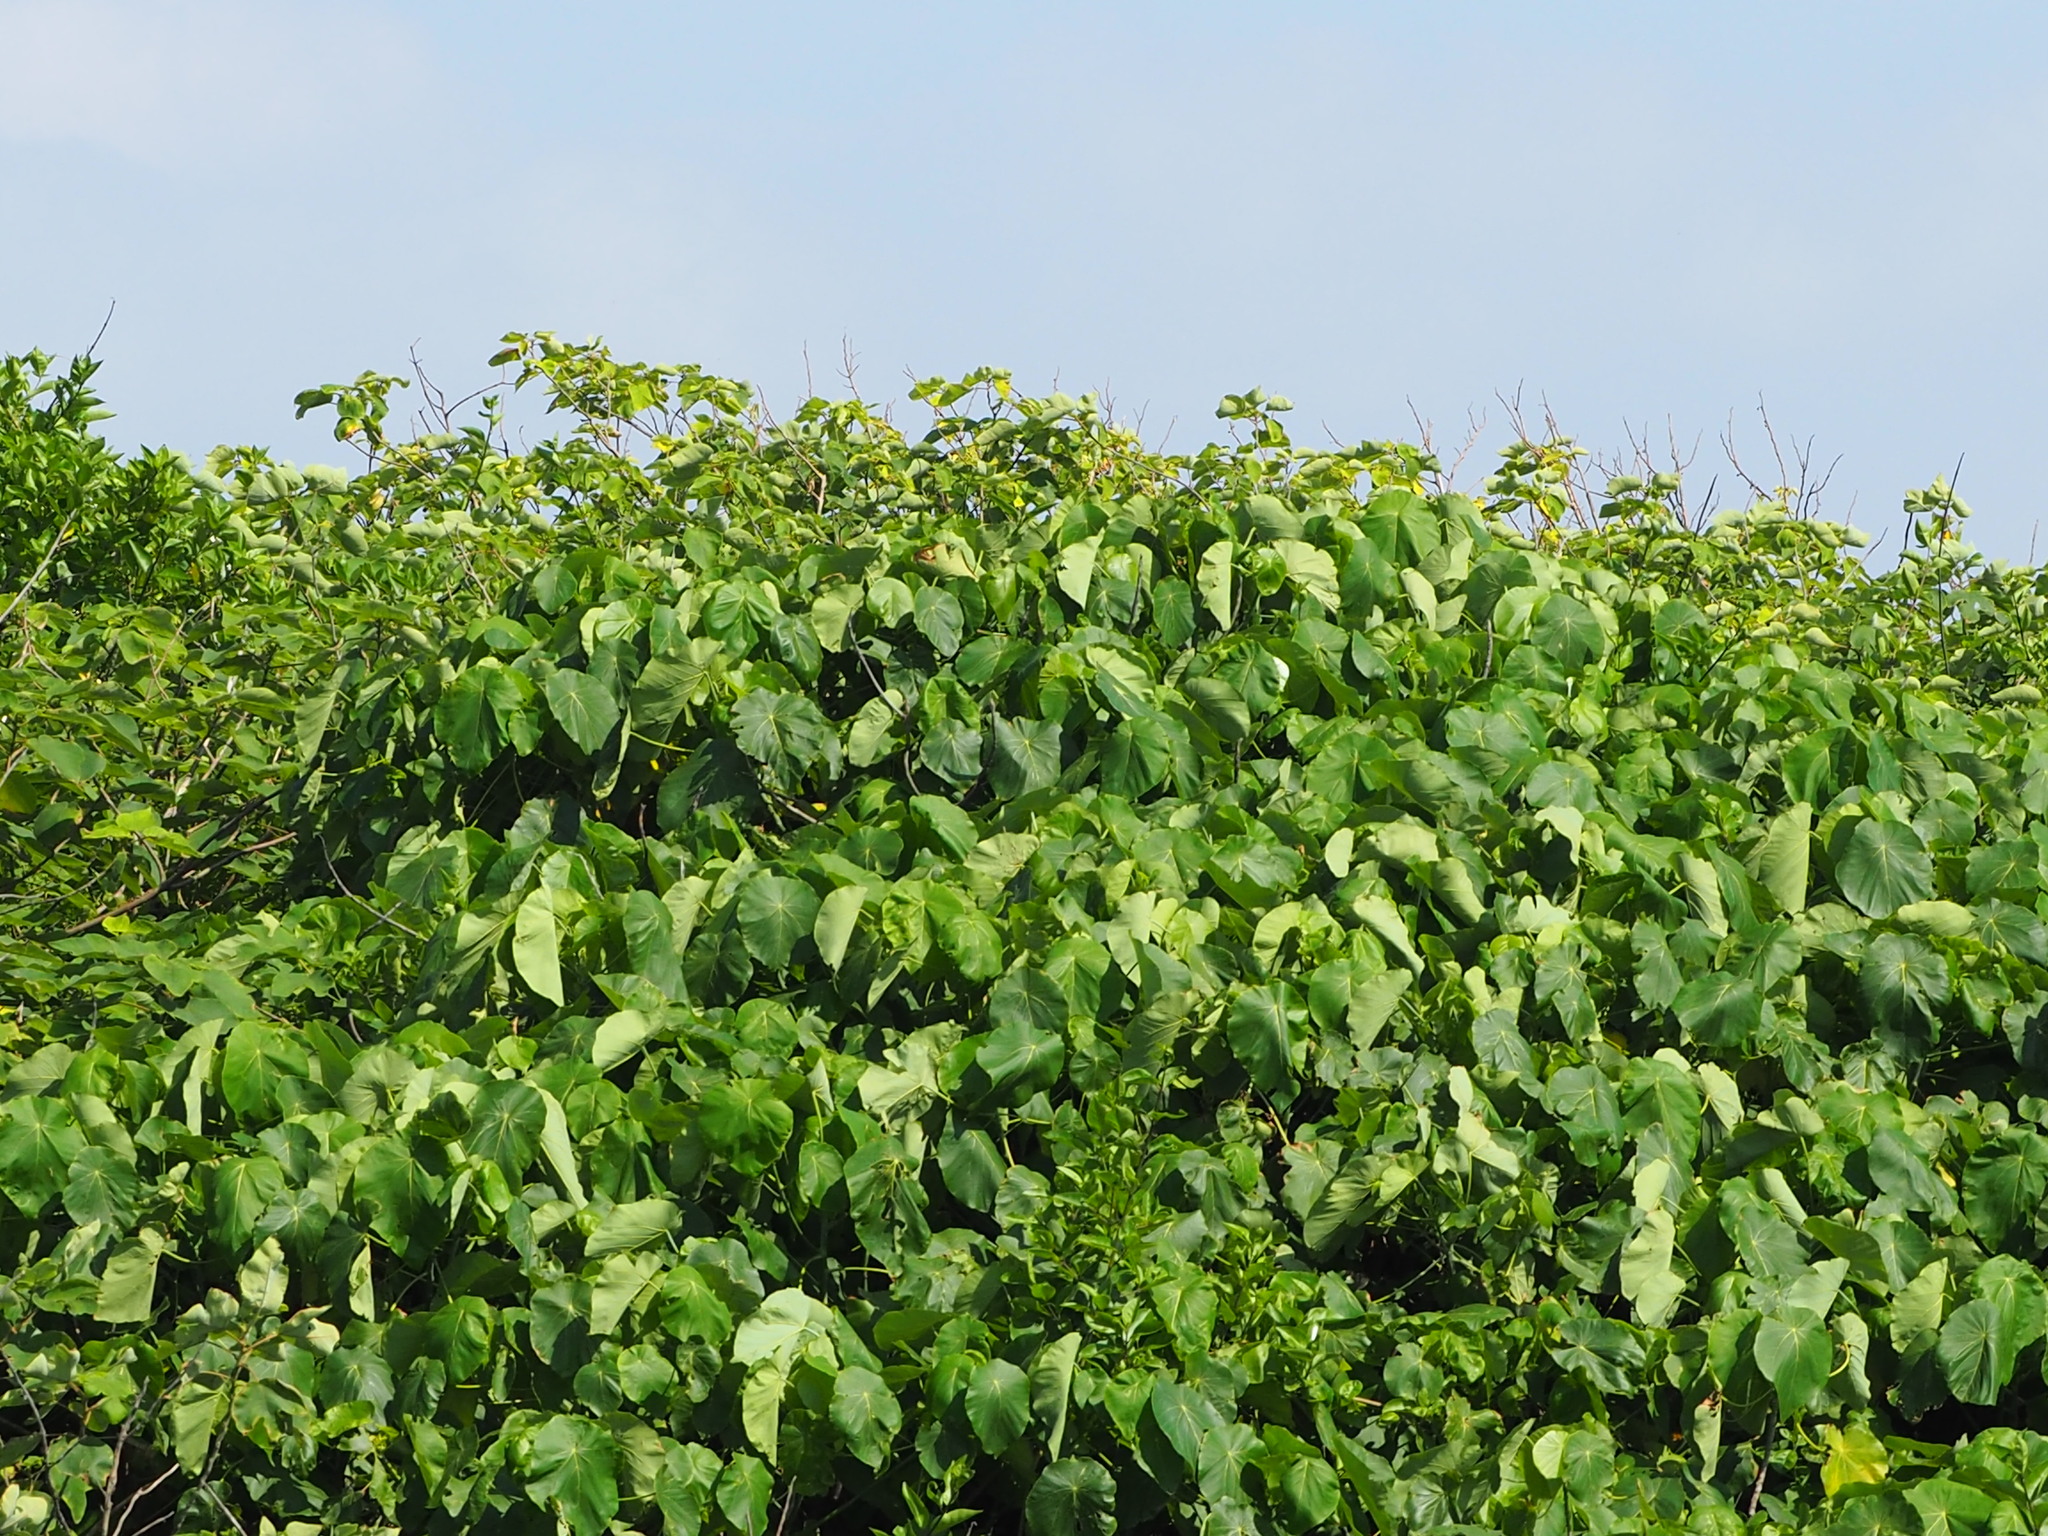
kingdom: Plantae
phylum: Tracheophyta
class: Magnoliopsida
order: Malpighiales
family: Euphorbiaceae
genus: Macaranga
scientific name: Macaranga tanarius
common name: Parasol leaf tree
